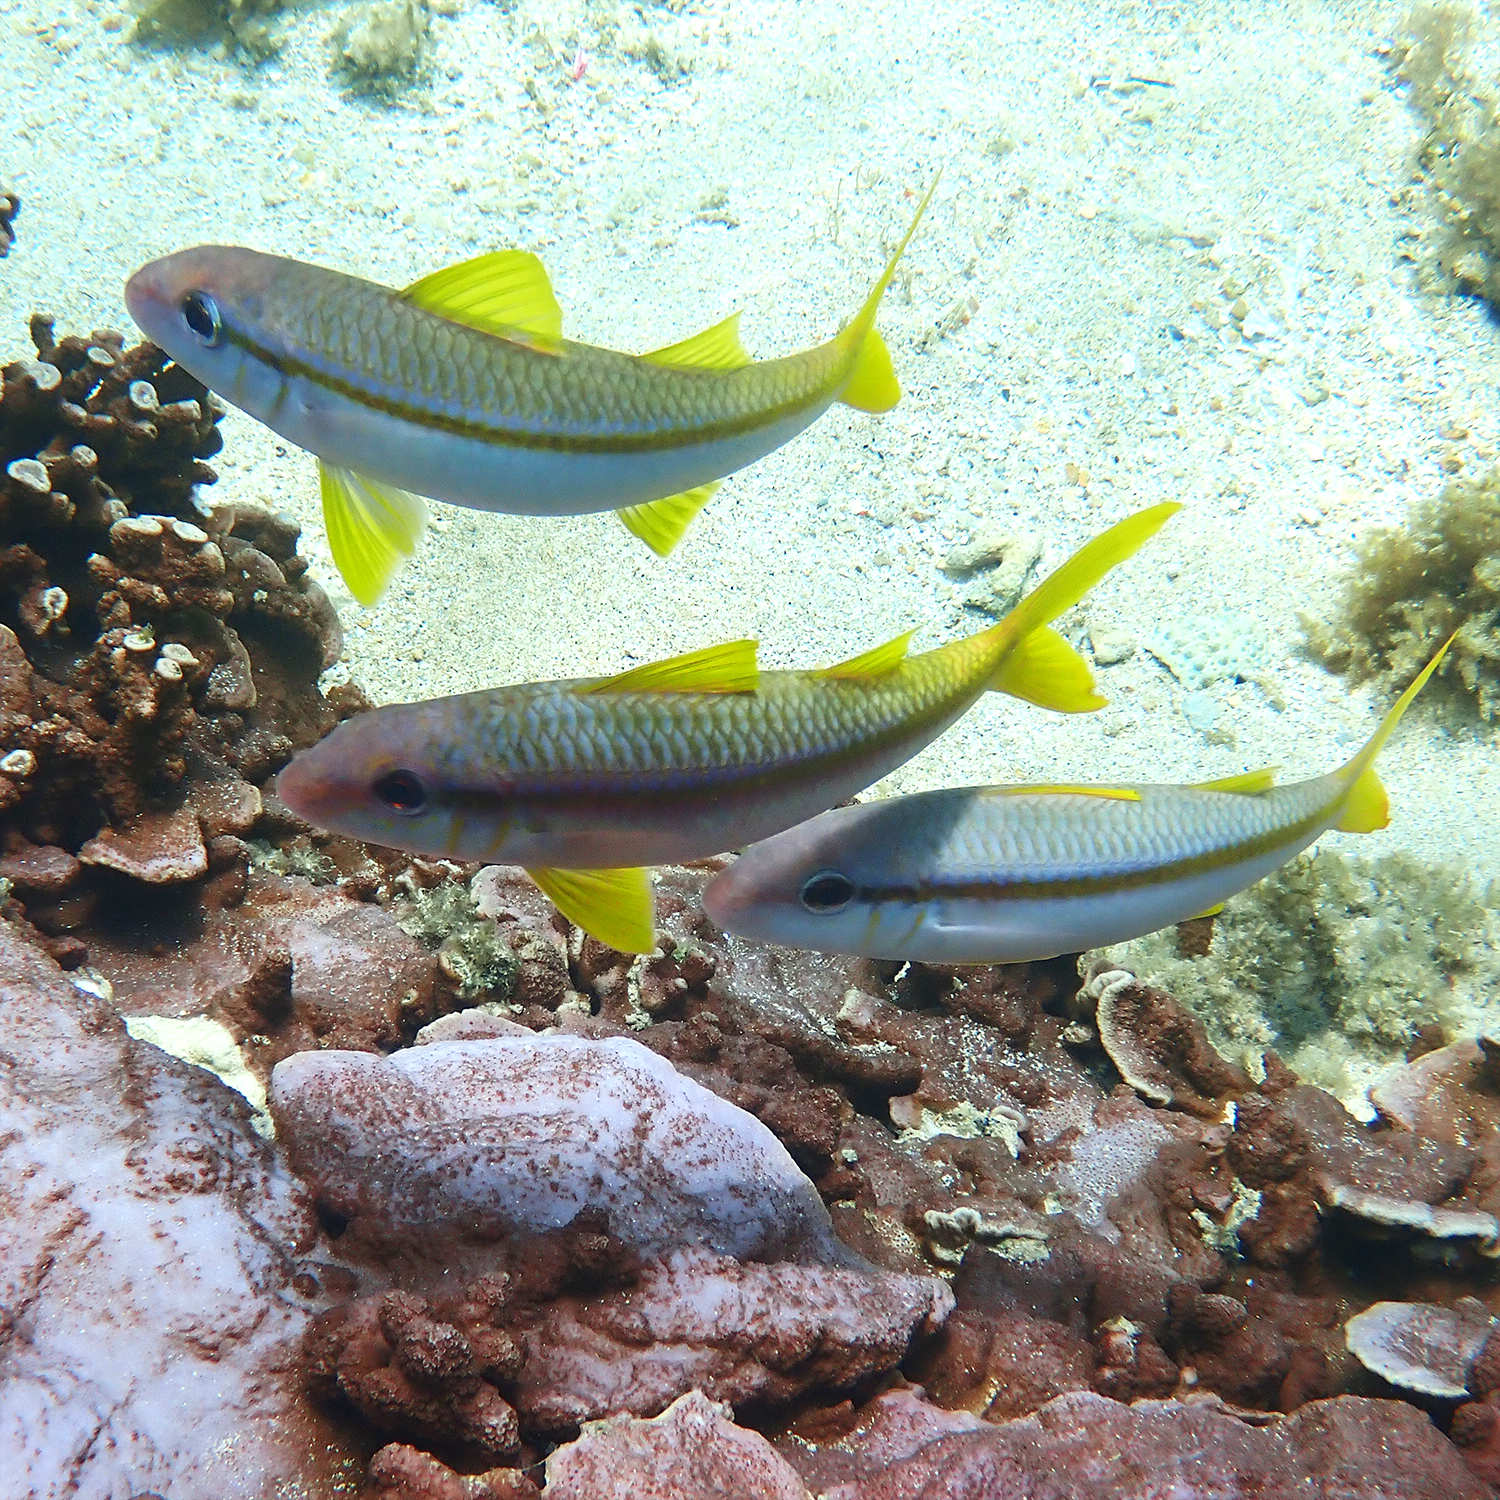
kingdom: Animalia
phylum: Chordata
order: Perciformes
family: Mullidae
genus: Mulloidichthys
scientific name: Mulloidichthys vanicolensis
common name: Yellowfin goatfish
